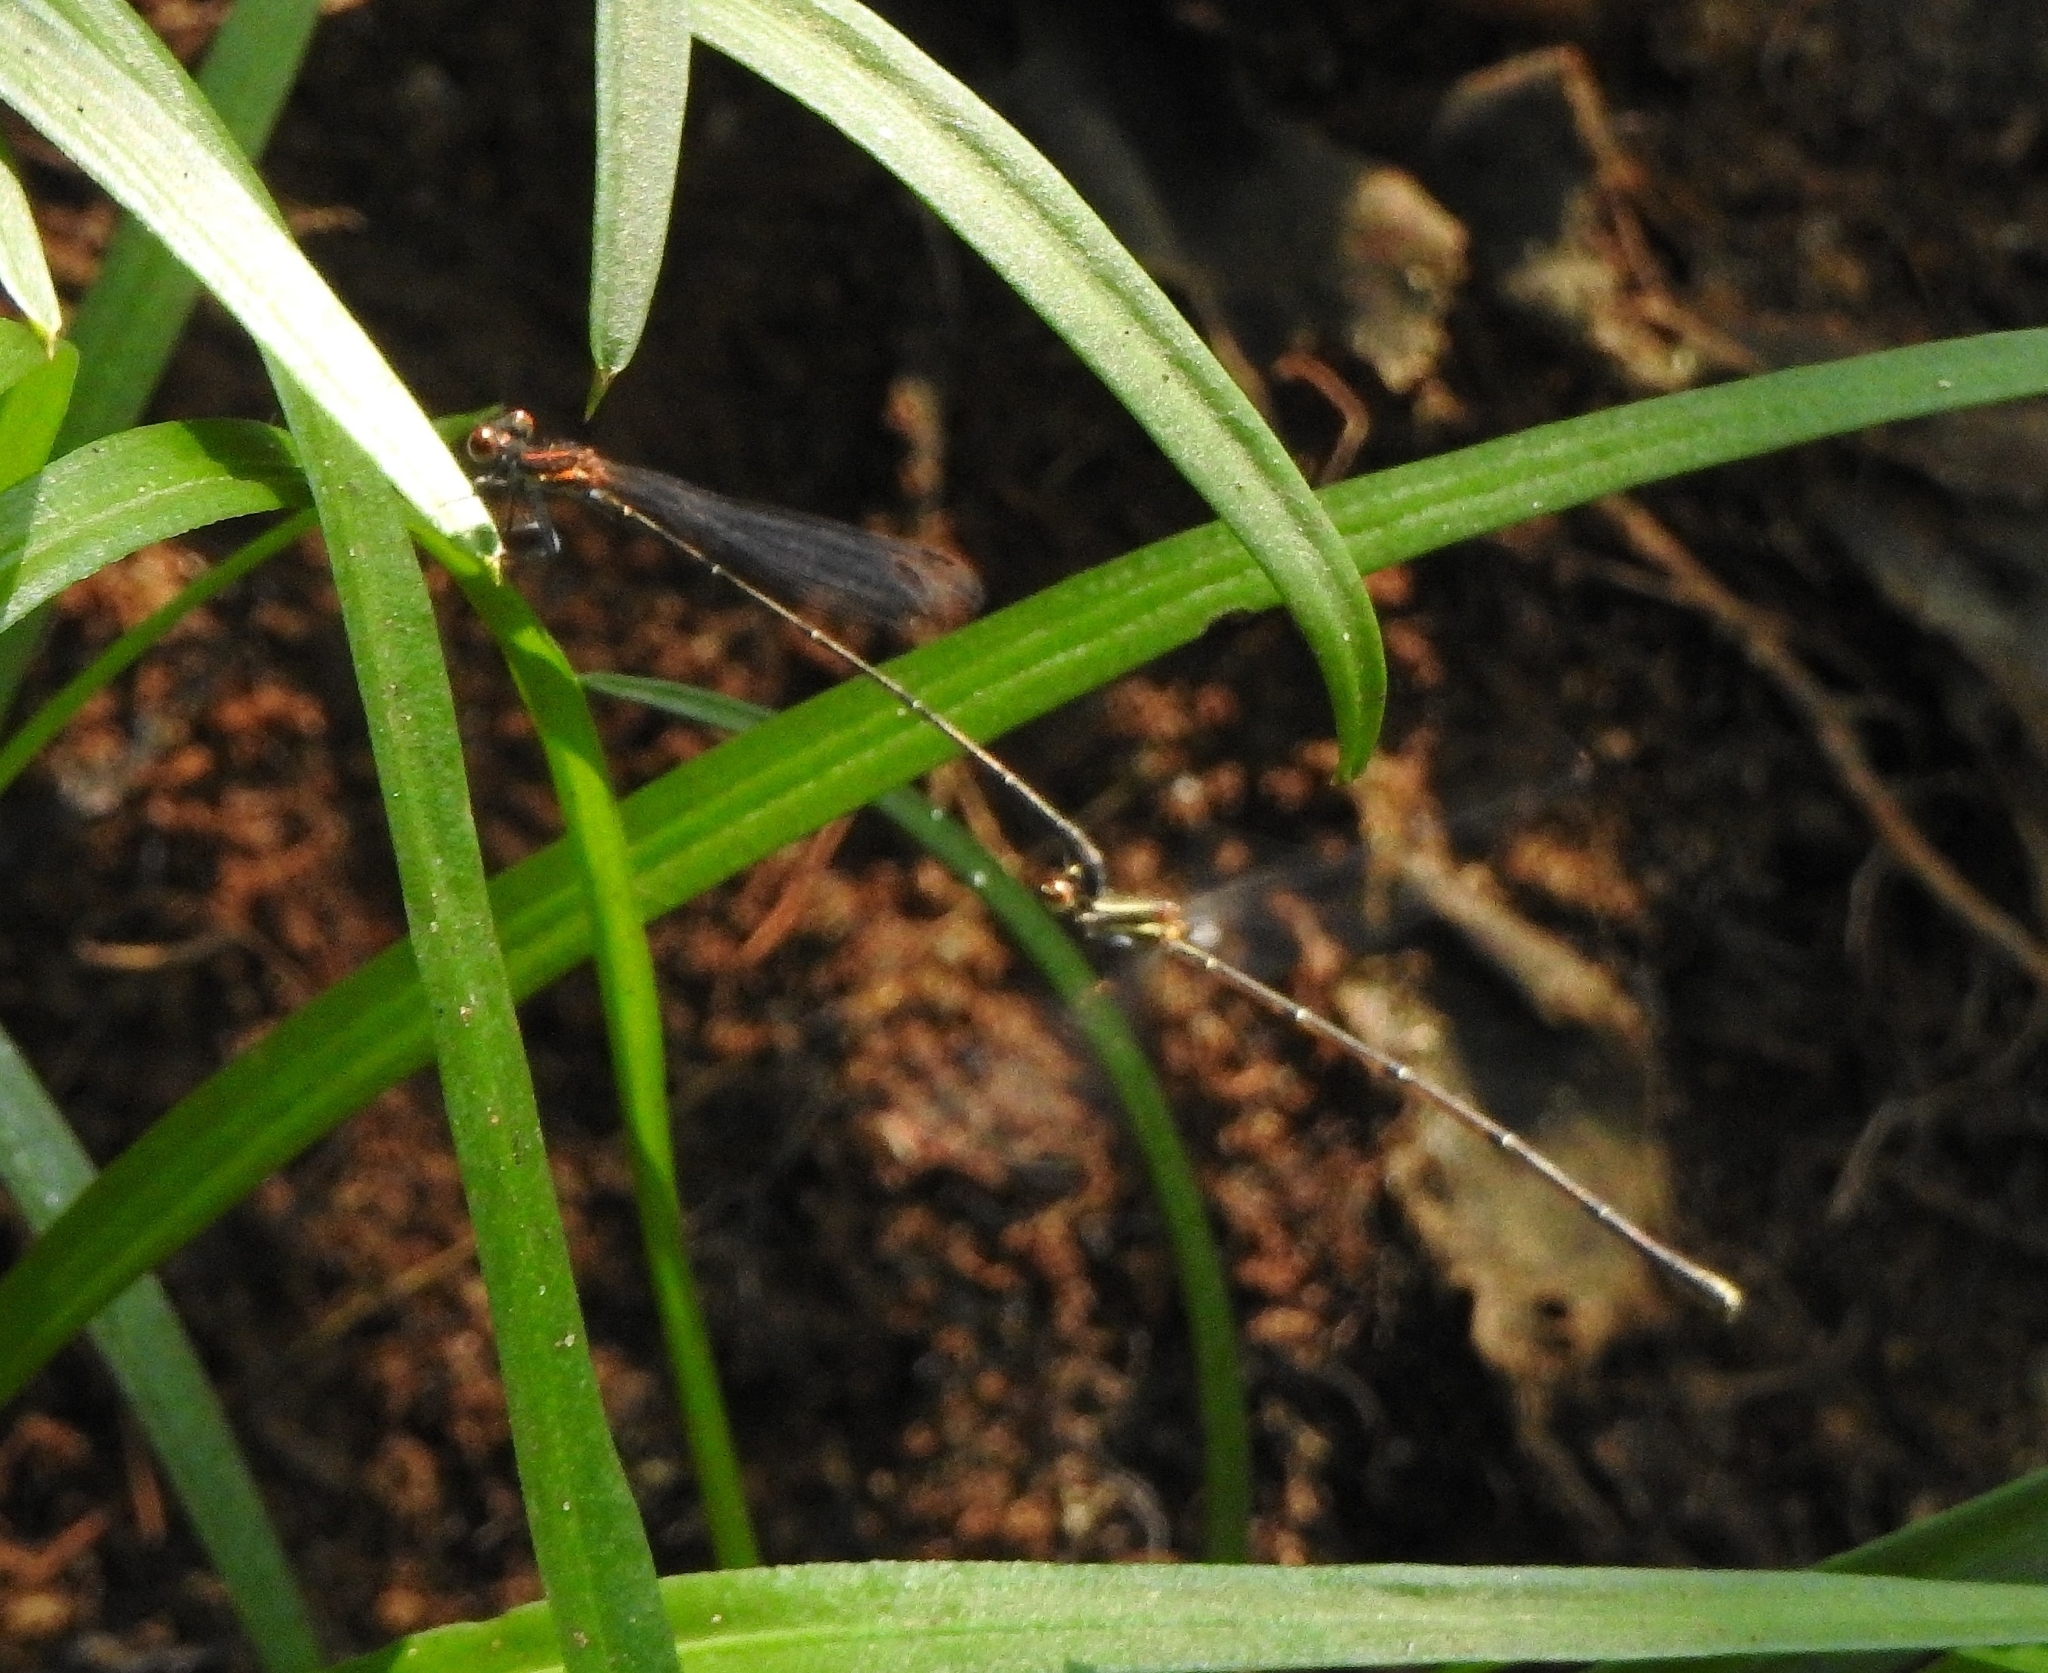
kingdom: Animalia
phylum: Arthropoda
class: Insecta
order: Odonata
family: Platycnemididae
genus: Prodasineura
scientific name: Prodasineura verticalis
